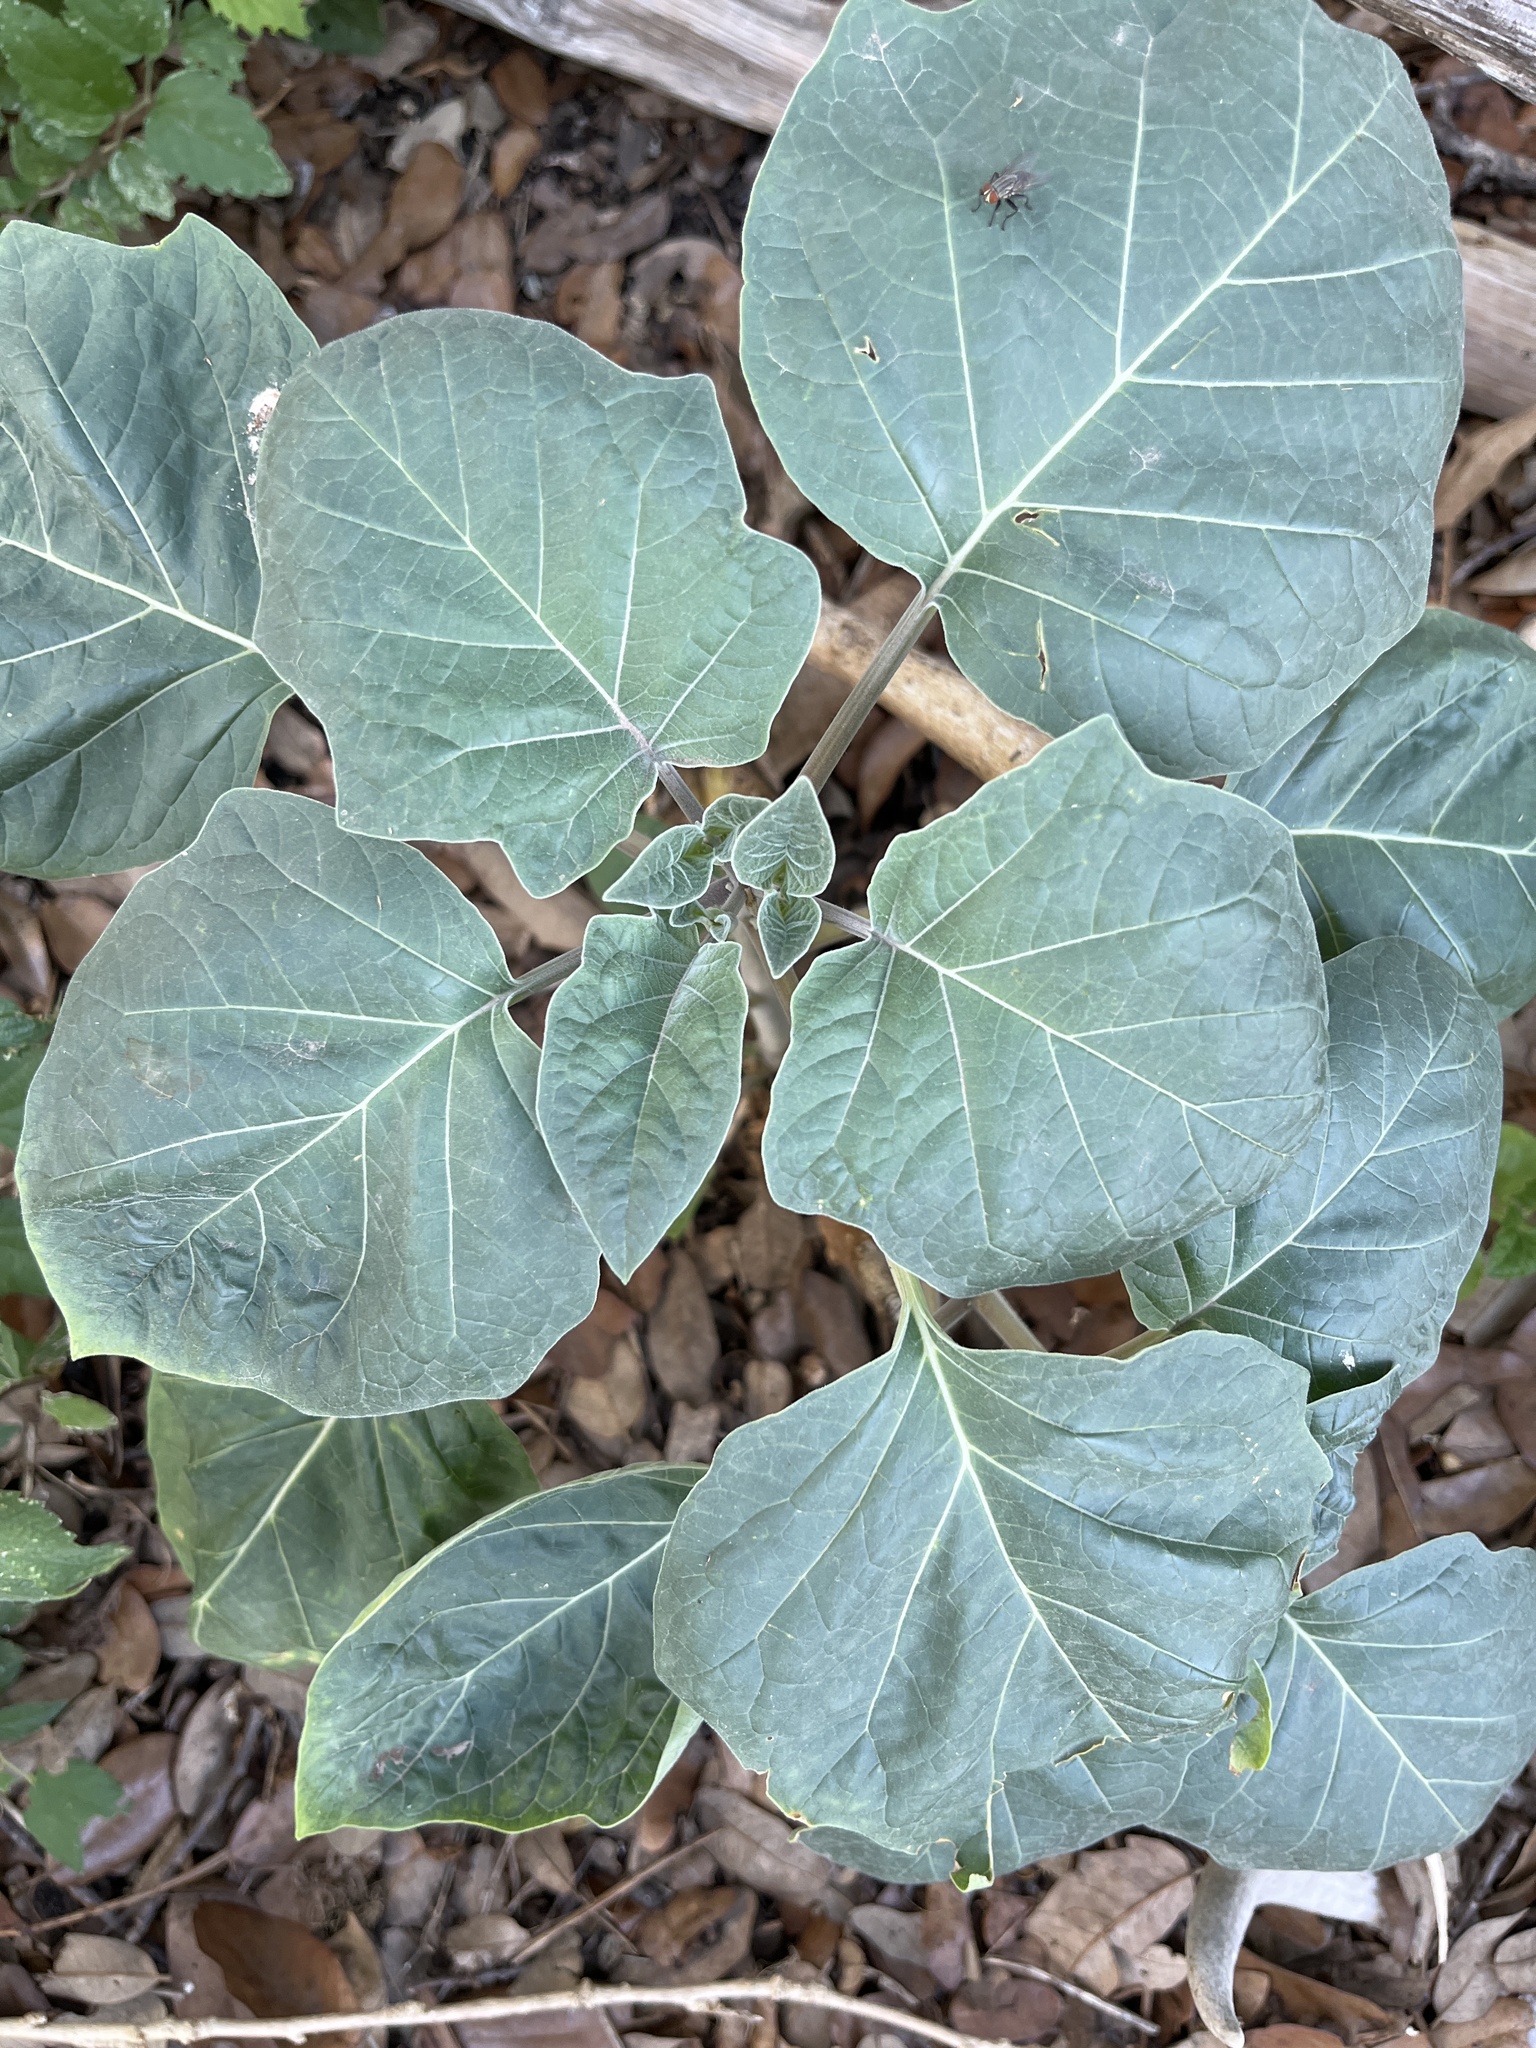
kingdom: Plantae
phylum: Tracheophyta
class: Magnoliopsida
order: Solanales
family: Solanaceae
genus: Datura
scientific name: Datura wrightii
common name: Sacred thorn-apple
